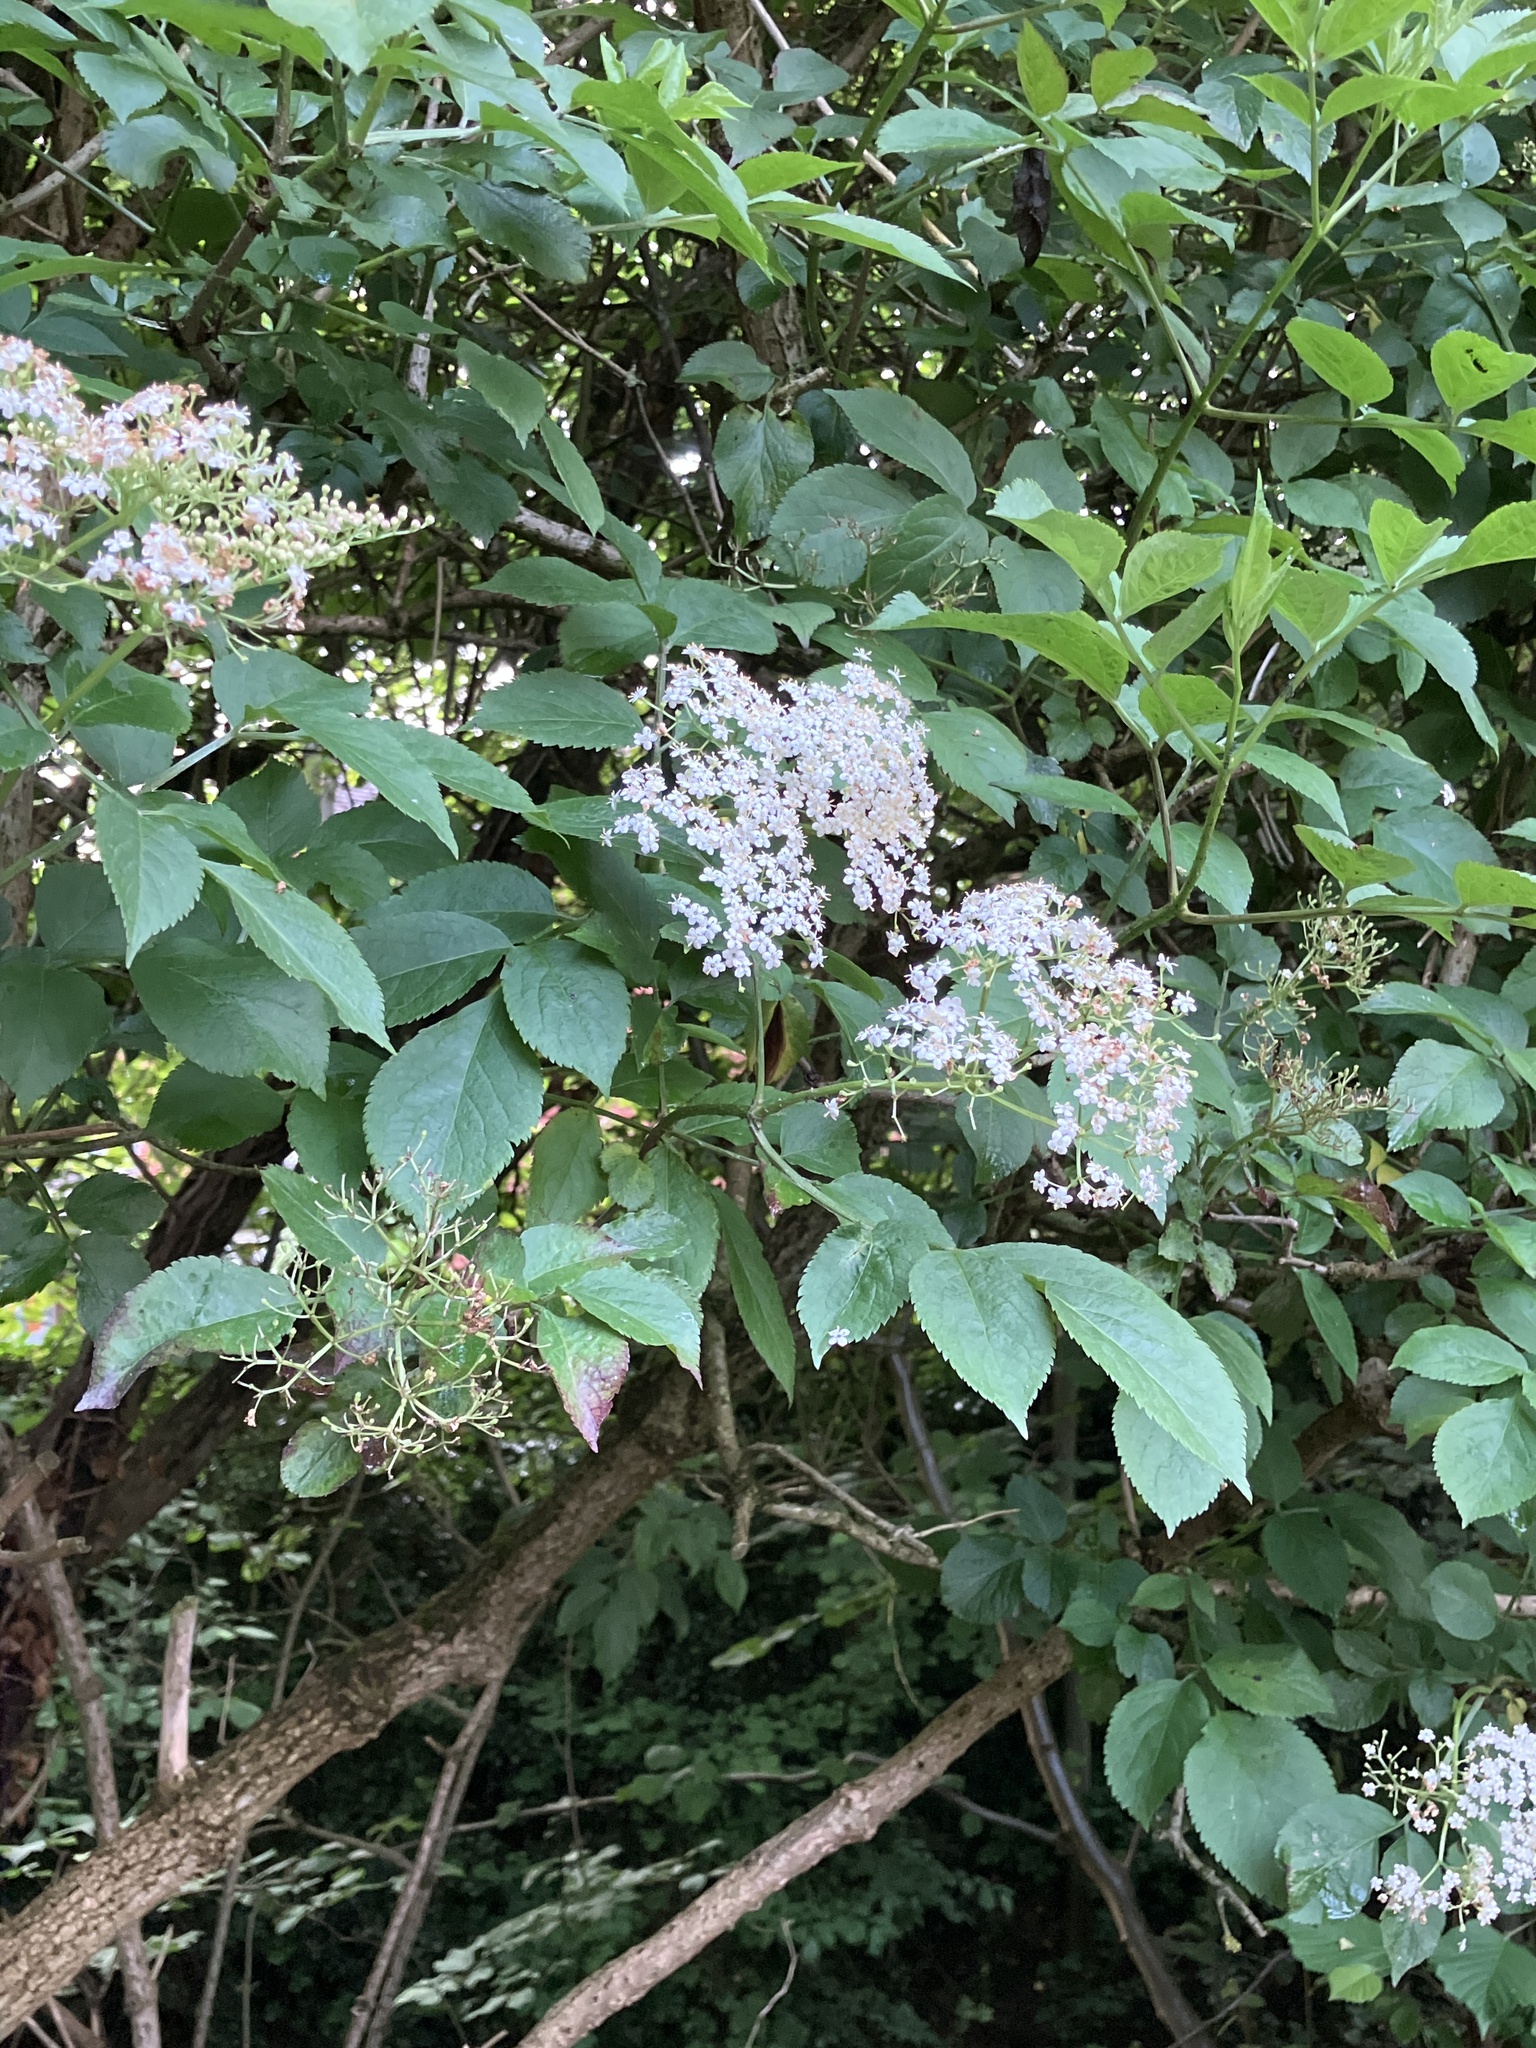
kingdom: Plantae
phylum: Tracheophyta
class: Magnoliopsida
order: Dipsacales
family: Viburnaceae
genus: Sambucus
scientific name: Sambucus nigra
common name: Elder
